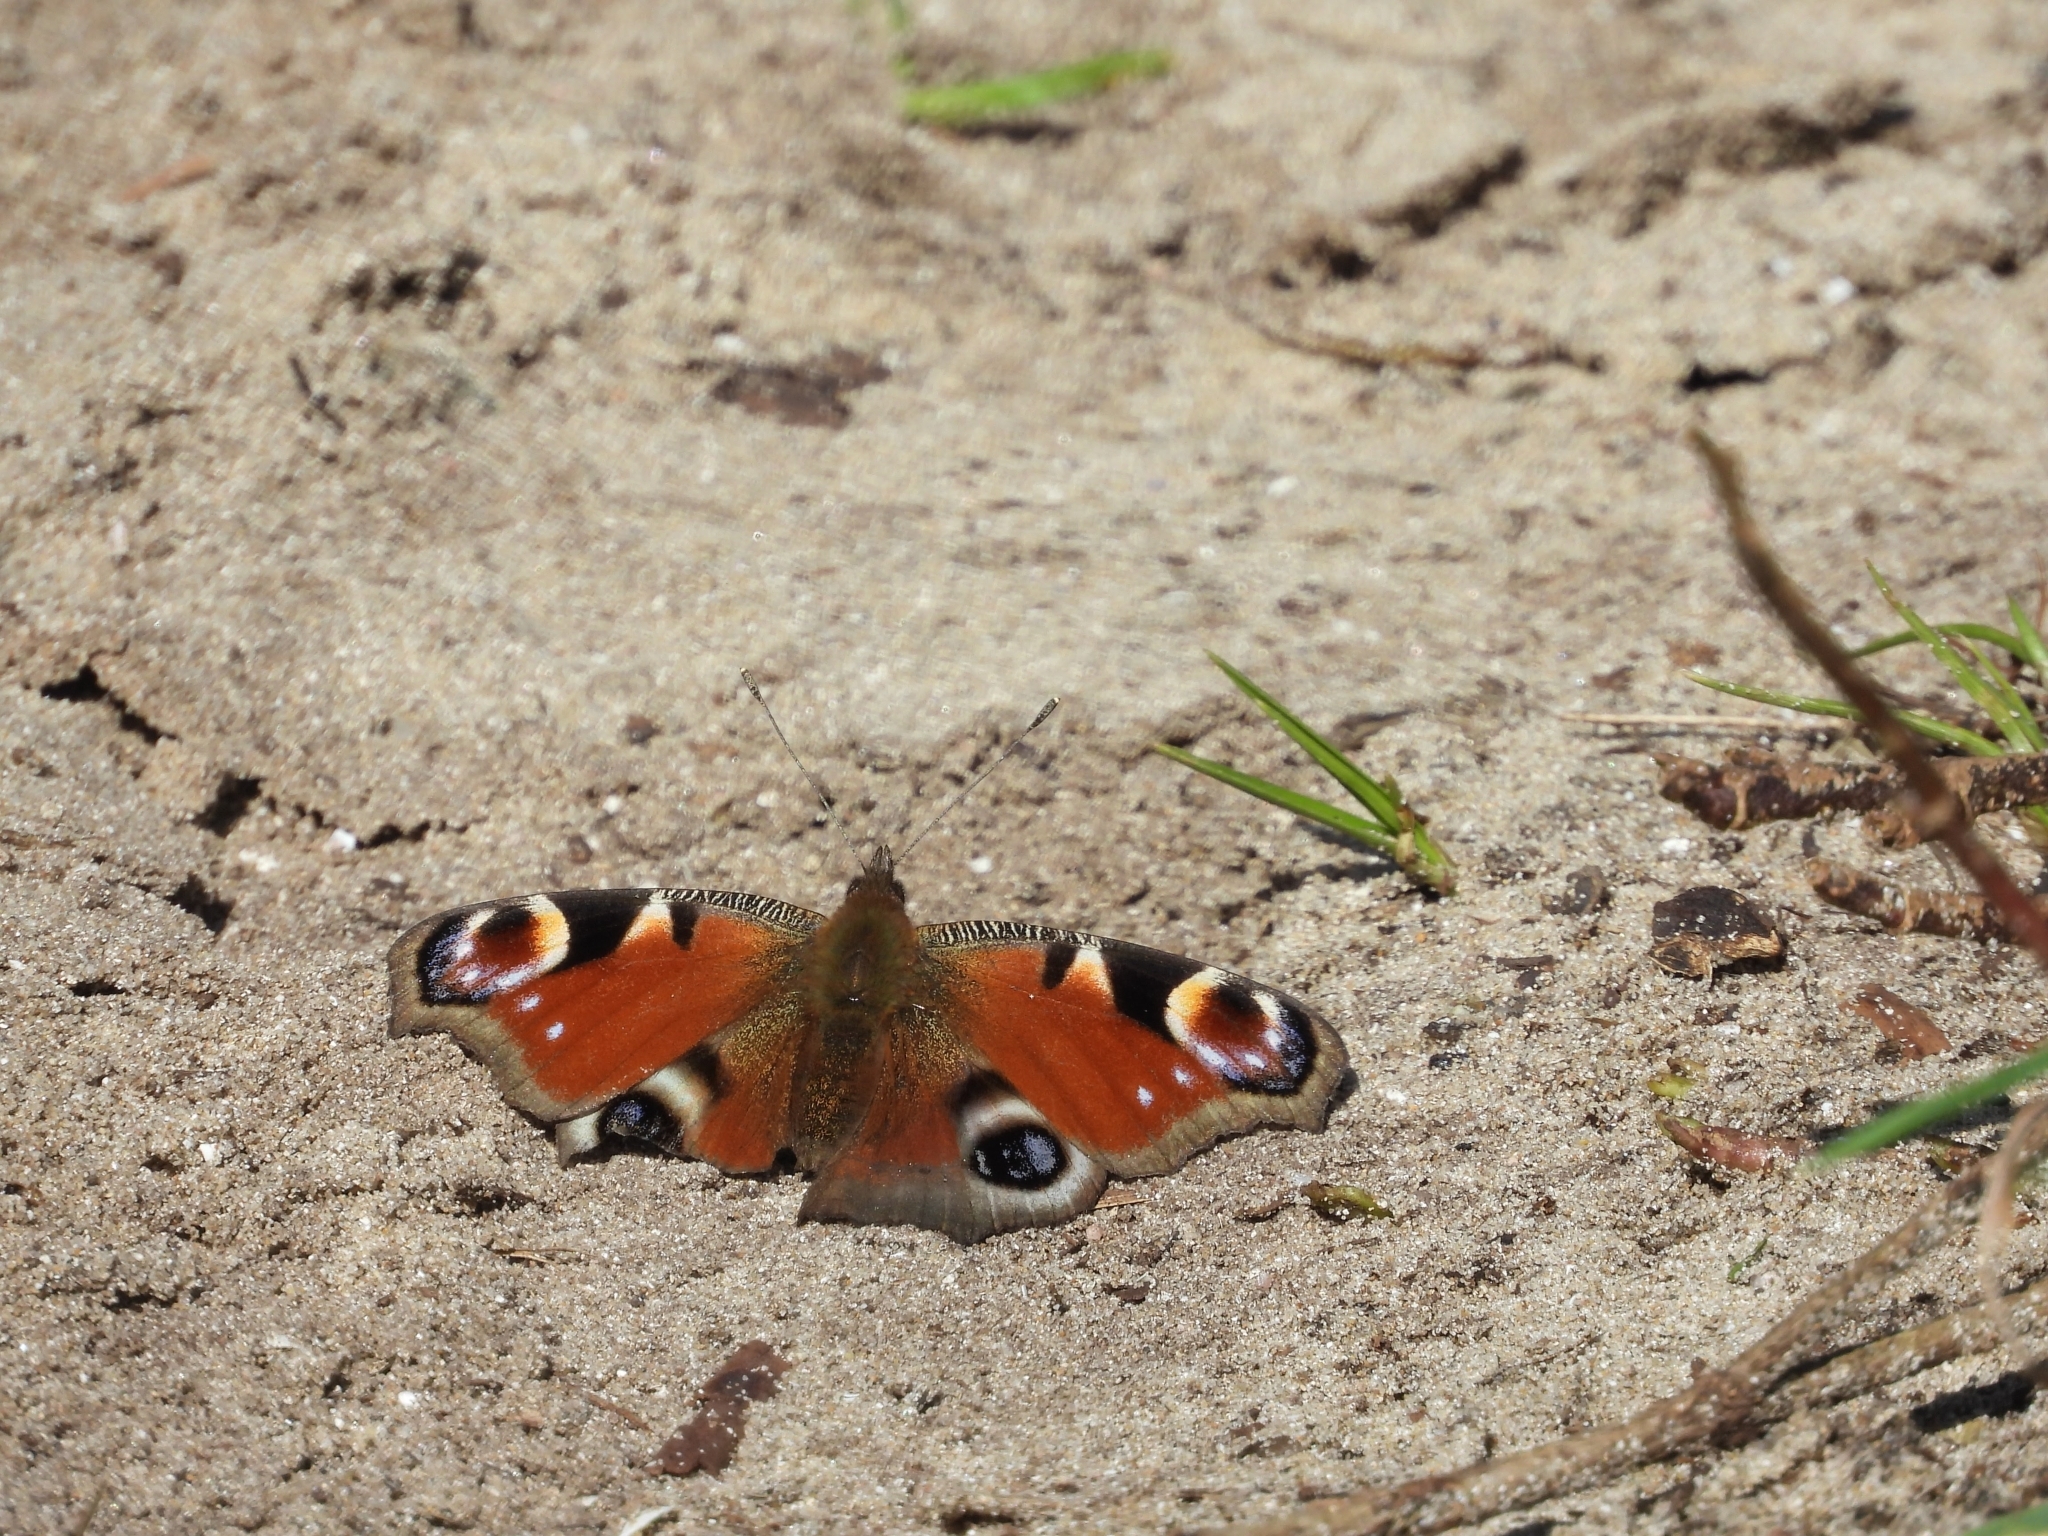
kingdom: Animalia
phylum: Arthropoda
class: Insecta
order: Lepidoptera
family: Nymphalidae
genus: Aglais
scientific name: Aglais io
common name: Peacock
